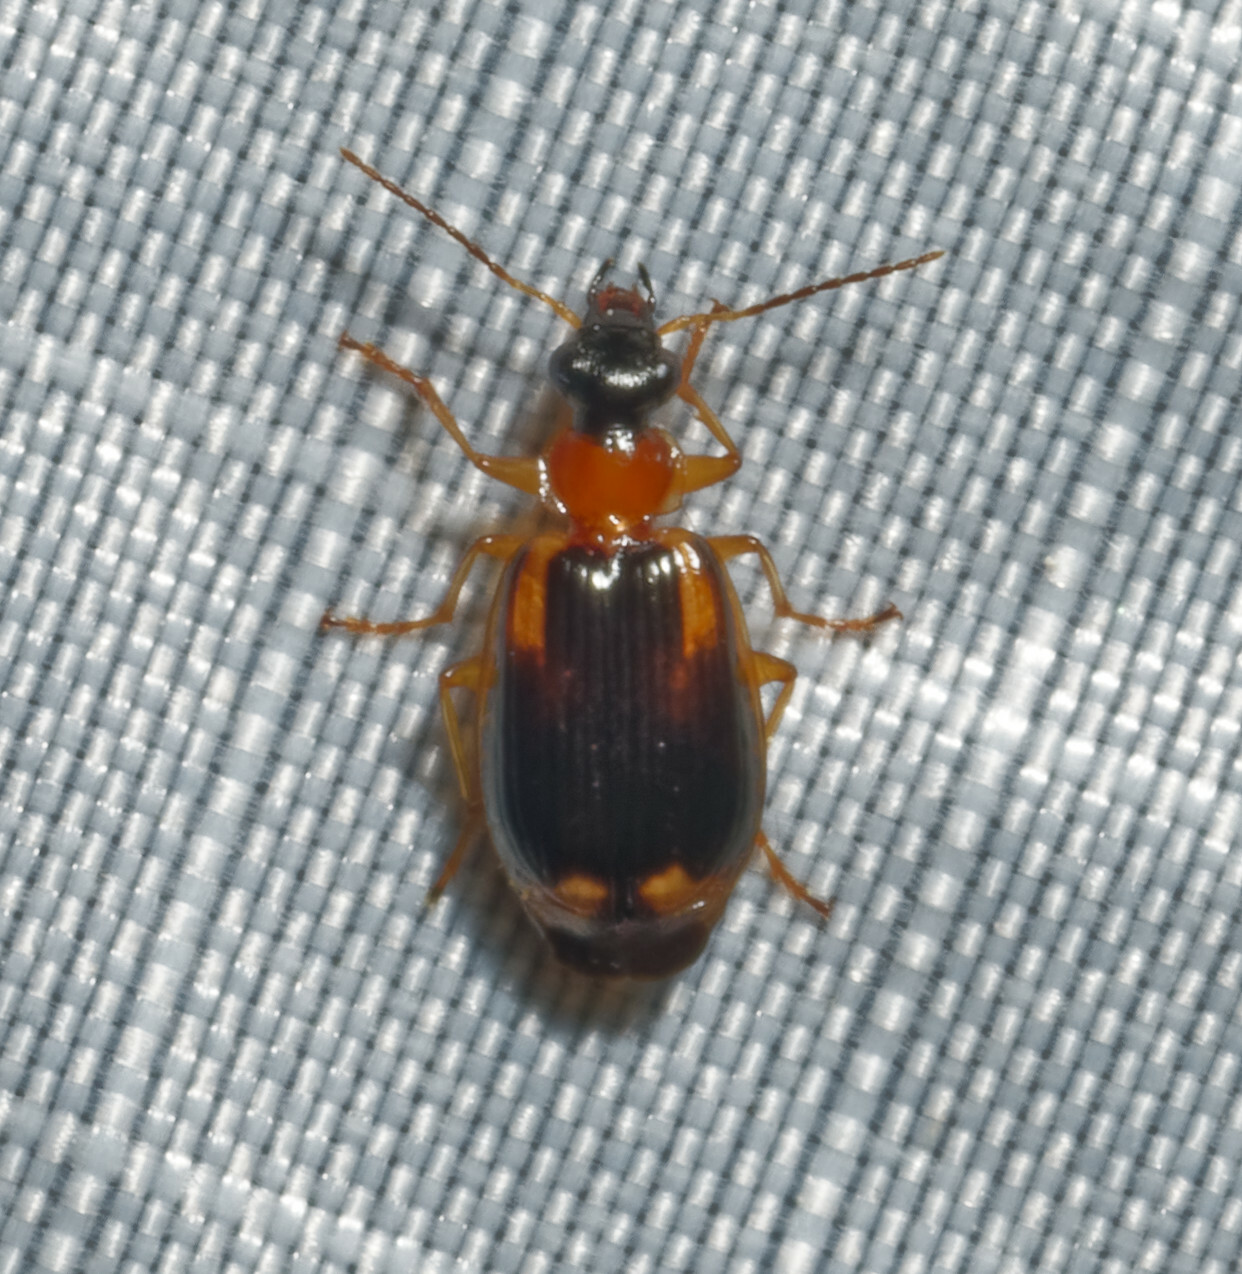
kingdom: Animalia
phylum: Arthropoda
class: Insecta
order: Coleoptera
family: Carabidae
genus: Lebia
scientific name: Lebia solea
